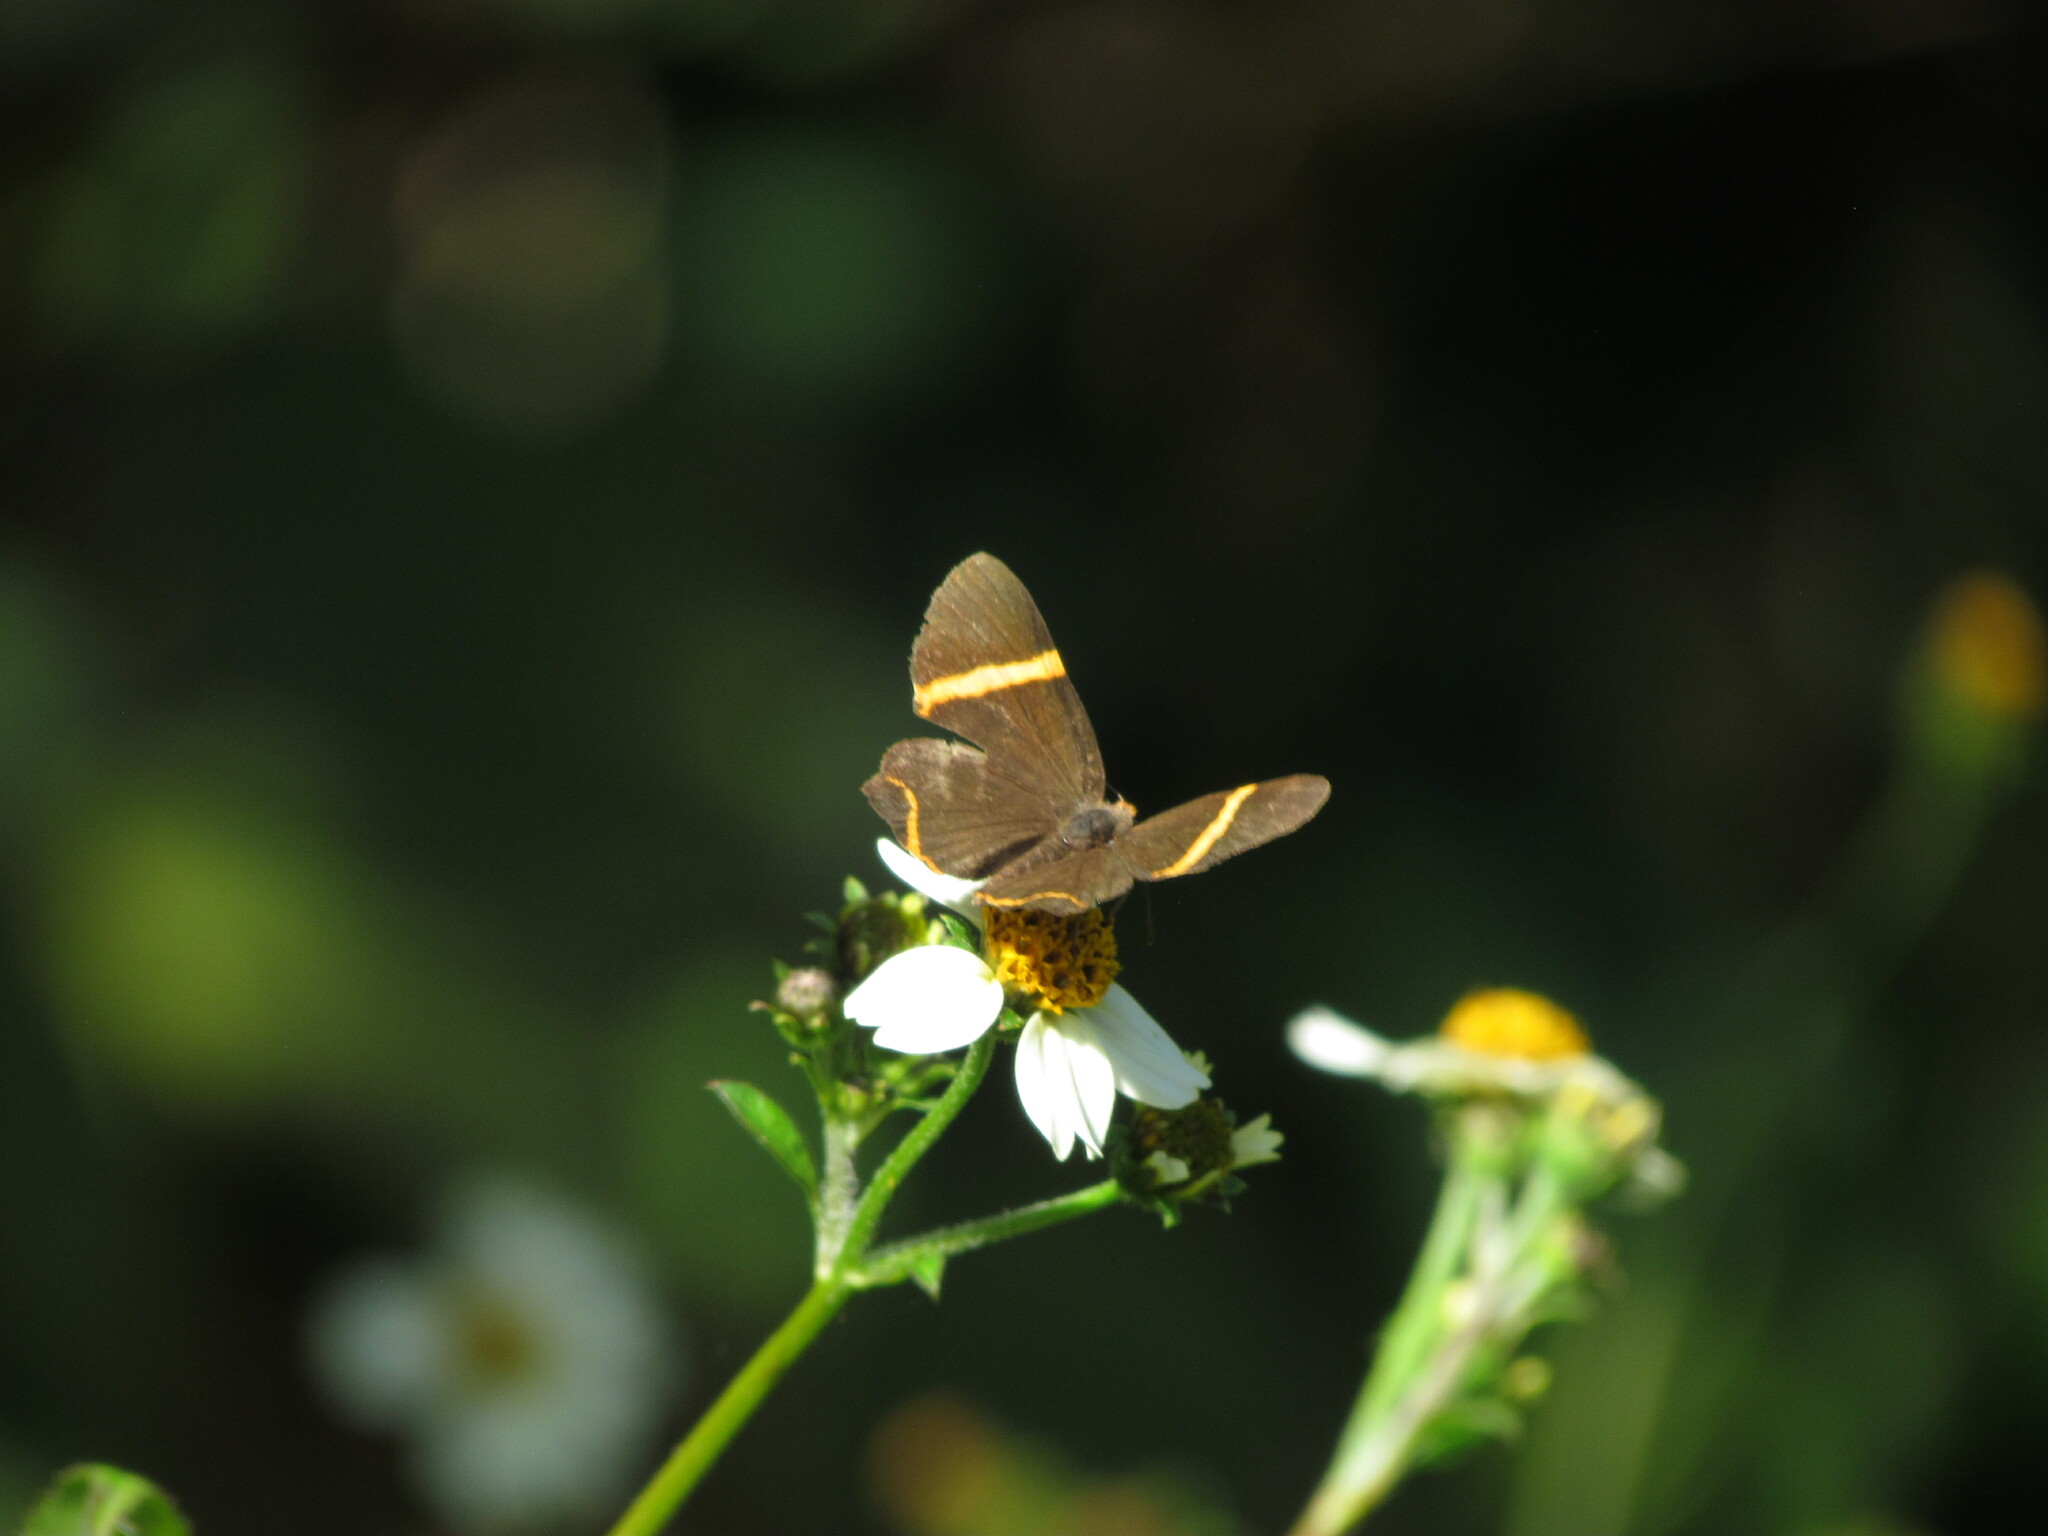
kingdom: Animalia
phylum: Arthropoda
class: Insecta
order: Lepidoptera
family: Riodinidae
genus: Riodina
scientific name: Riodina lysippoides
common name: Little dancer metalmark
